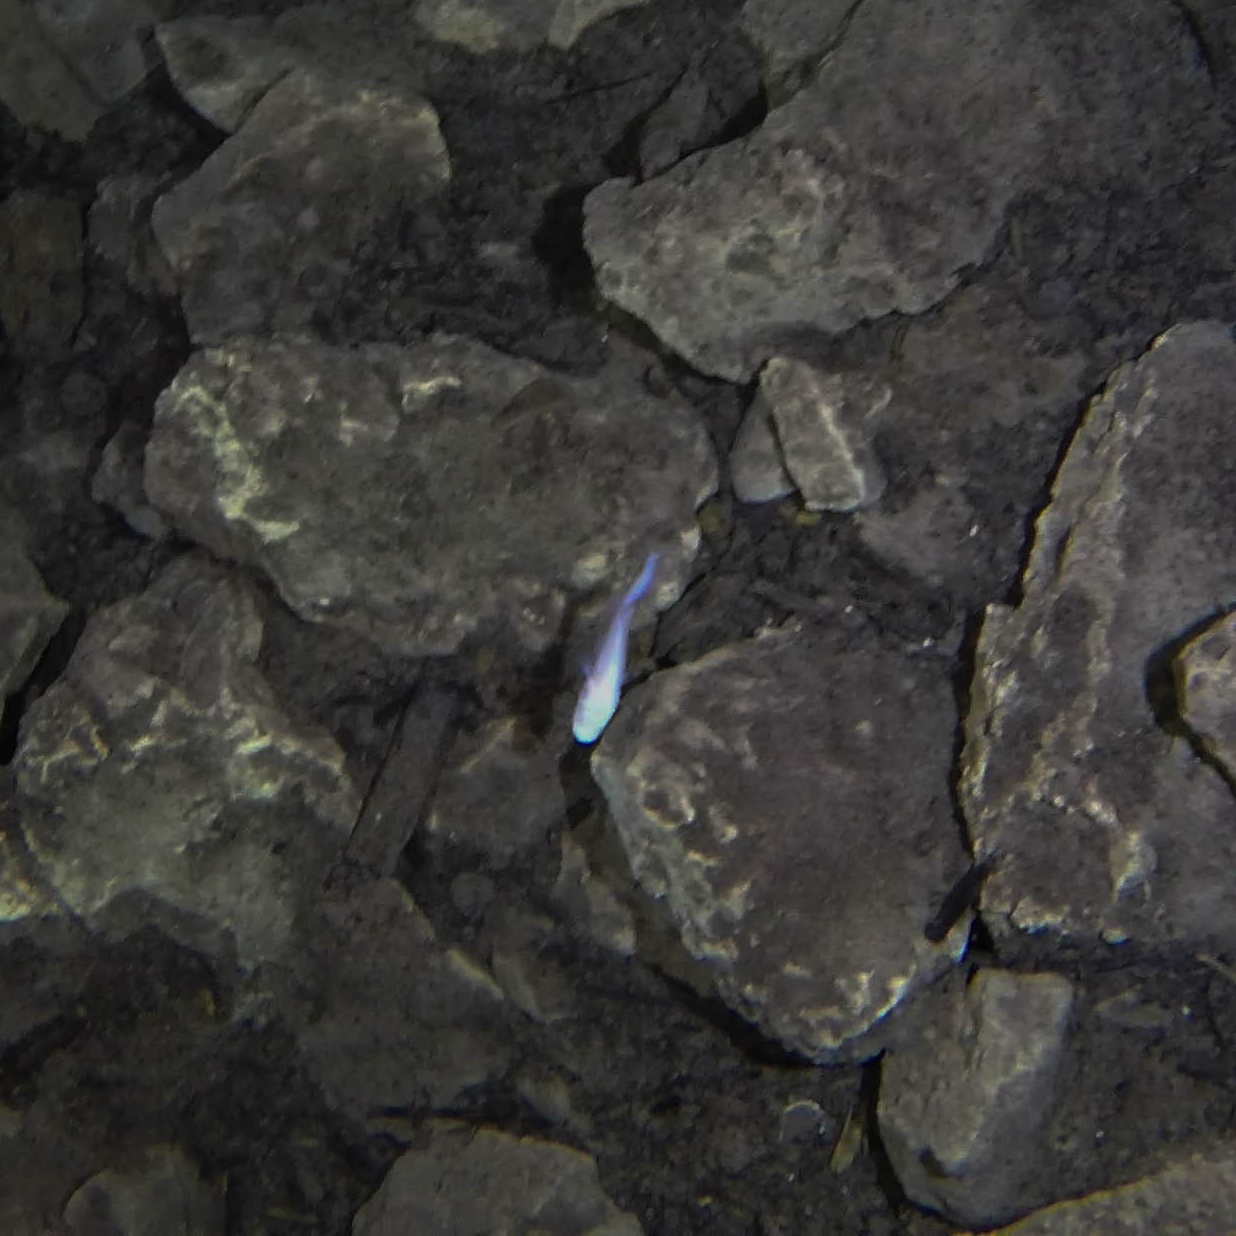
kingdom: Animalia
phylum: Chordata
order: Ophidiiformes
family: Bythitidae
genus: Typhliasina
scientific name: Typhliasina pearsei
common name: Dama ciega blanca
